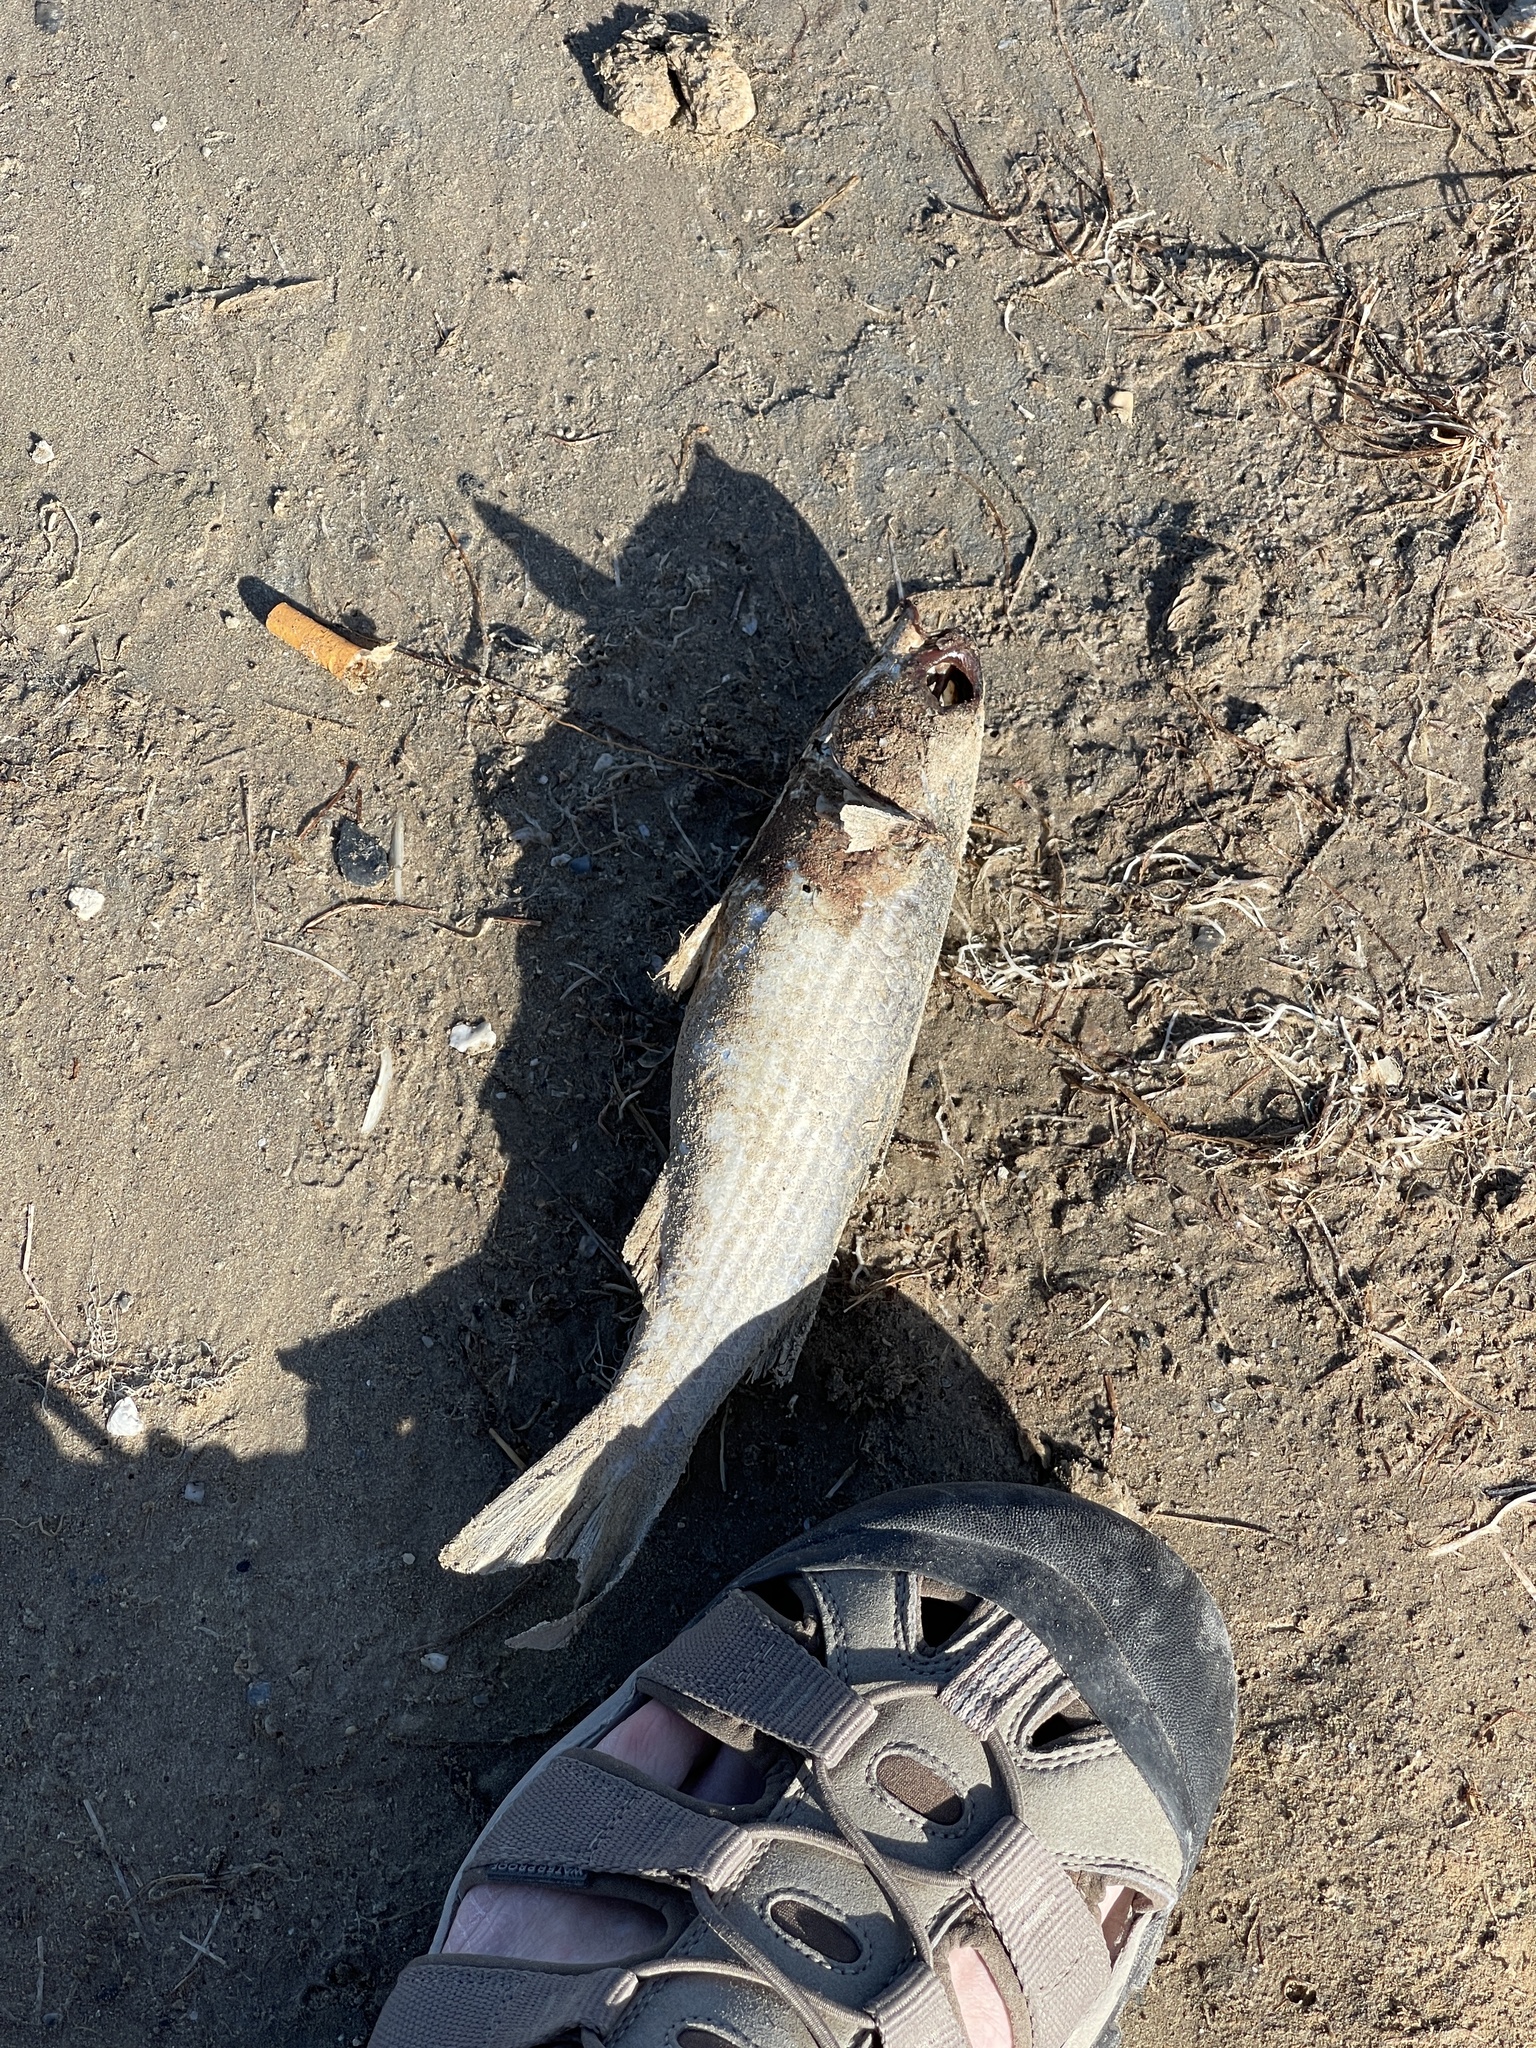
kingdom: Animalia
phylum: Chordata
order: Mugiliformes
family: Mugilidae
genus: Mugil
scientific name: Mugil cephalus
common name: Grey mullet
